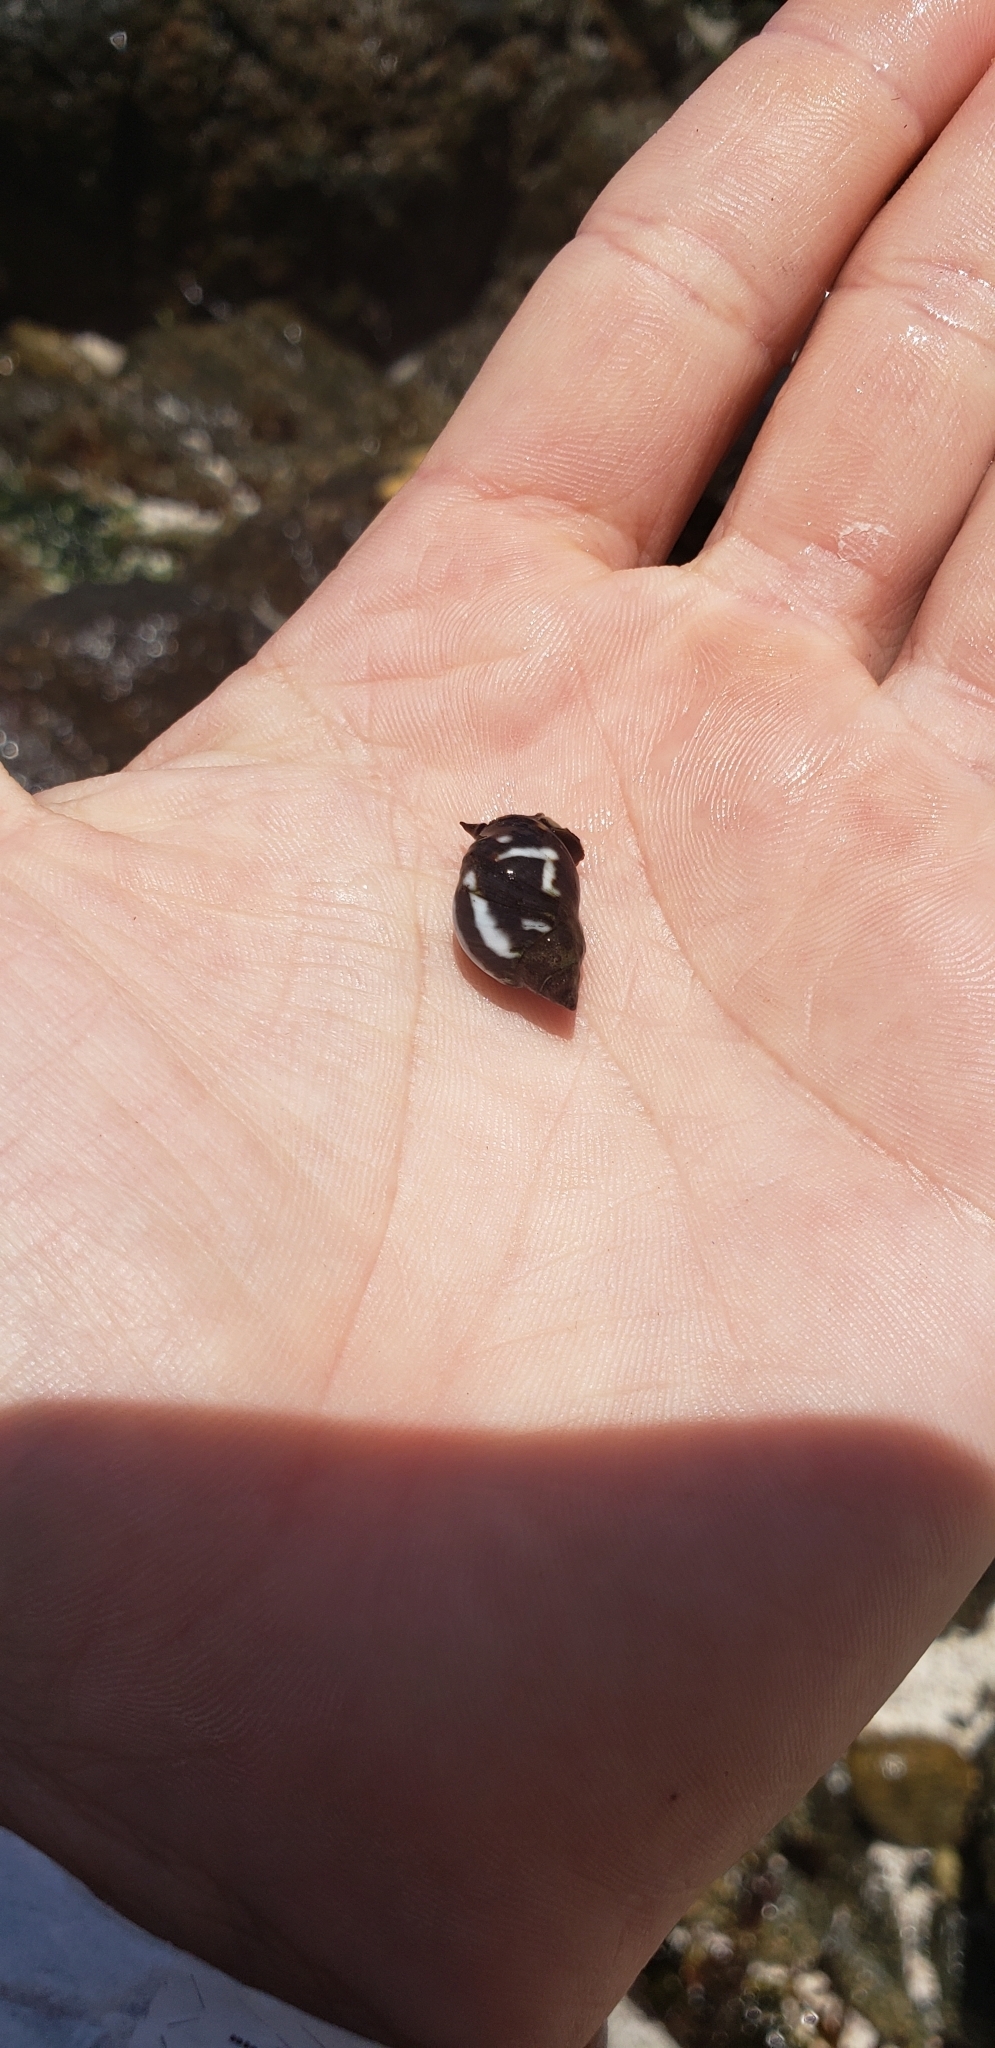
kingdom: Animalia
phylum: Mollusca
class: Gastropoda
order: Littorinimorpha
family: Littorinidae
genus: Echinolittorina
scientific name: Echinolittorina peruviana
